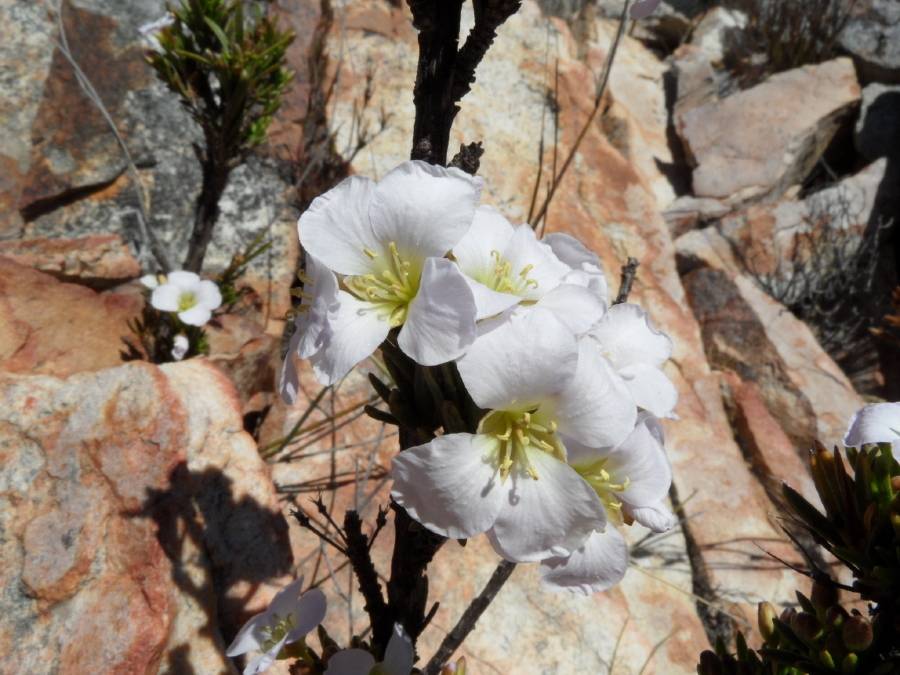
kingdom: Plantae
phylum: Tracheophyta
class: Magnoliopsida
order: Brassicales
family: Brassicaceae
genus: Heliophila
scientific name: Heliophila scoparia
